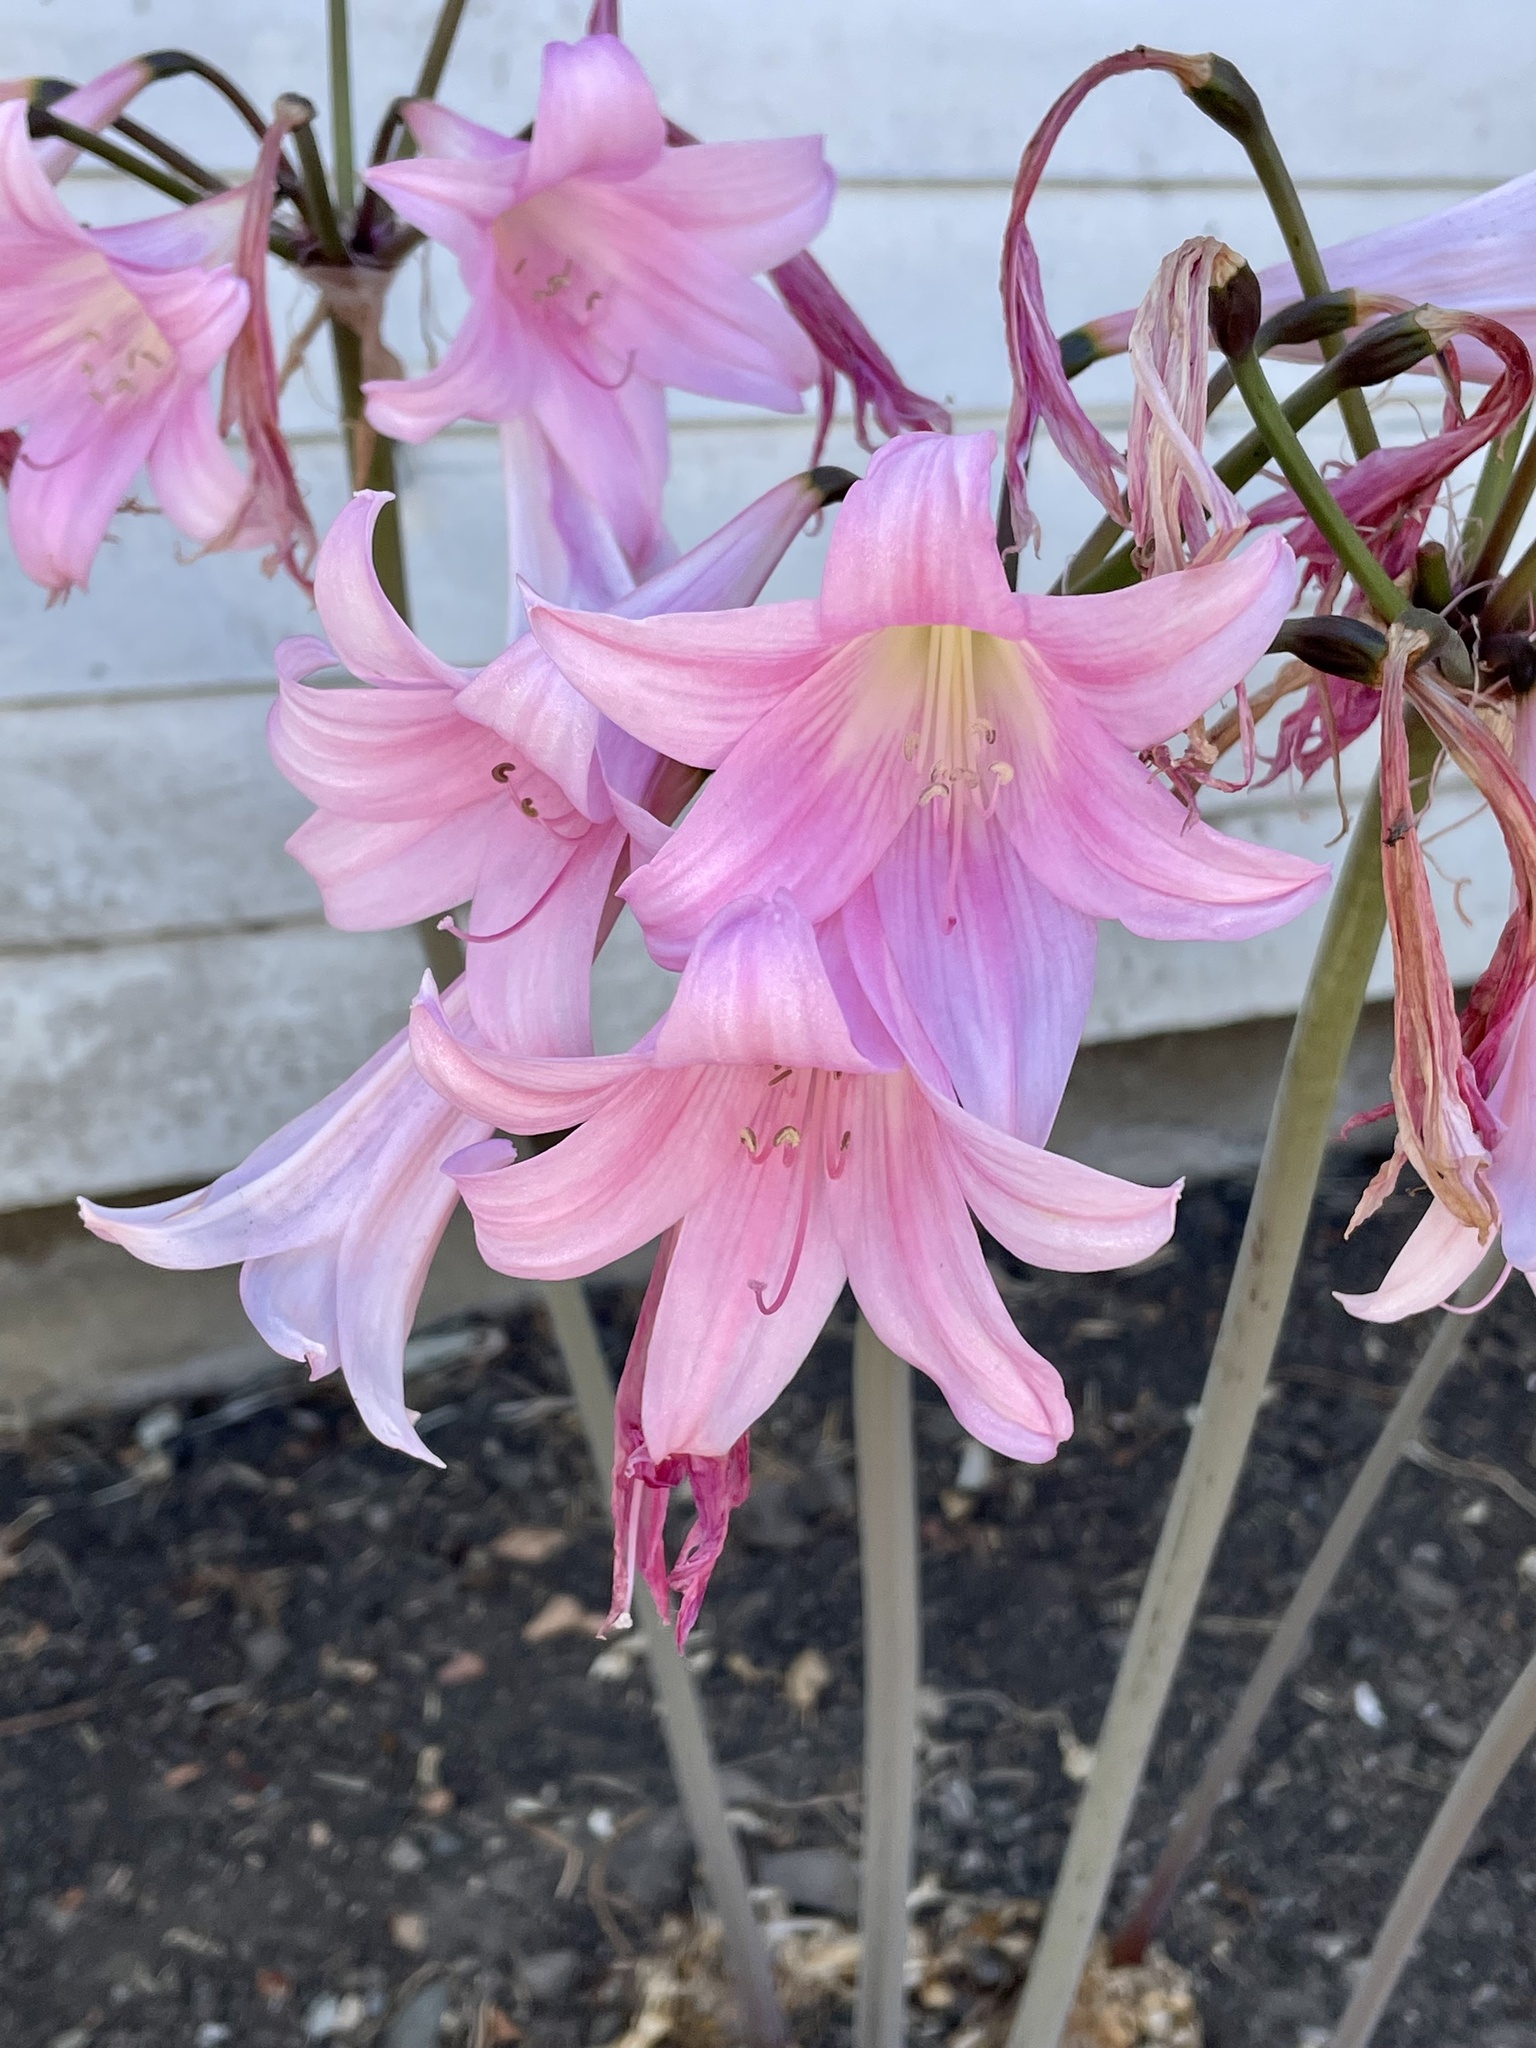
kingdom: Plantae
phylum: Tracheophyta
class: Liliopsida
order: Asparagales
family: Amaryllidaceae
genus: Amaryllis
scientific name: Amaryllis belladonna
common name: Jersey lily
